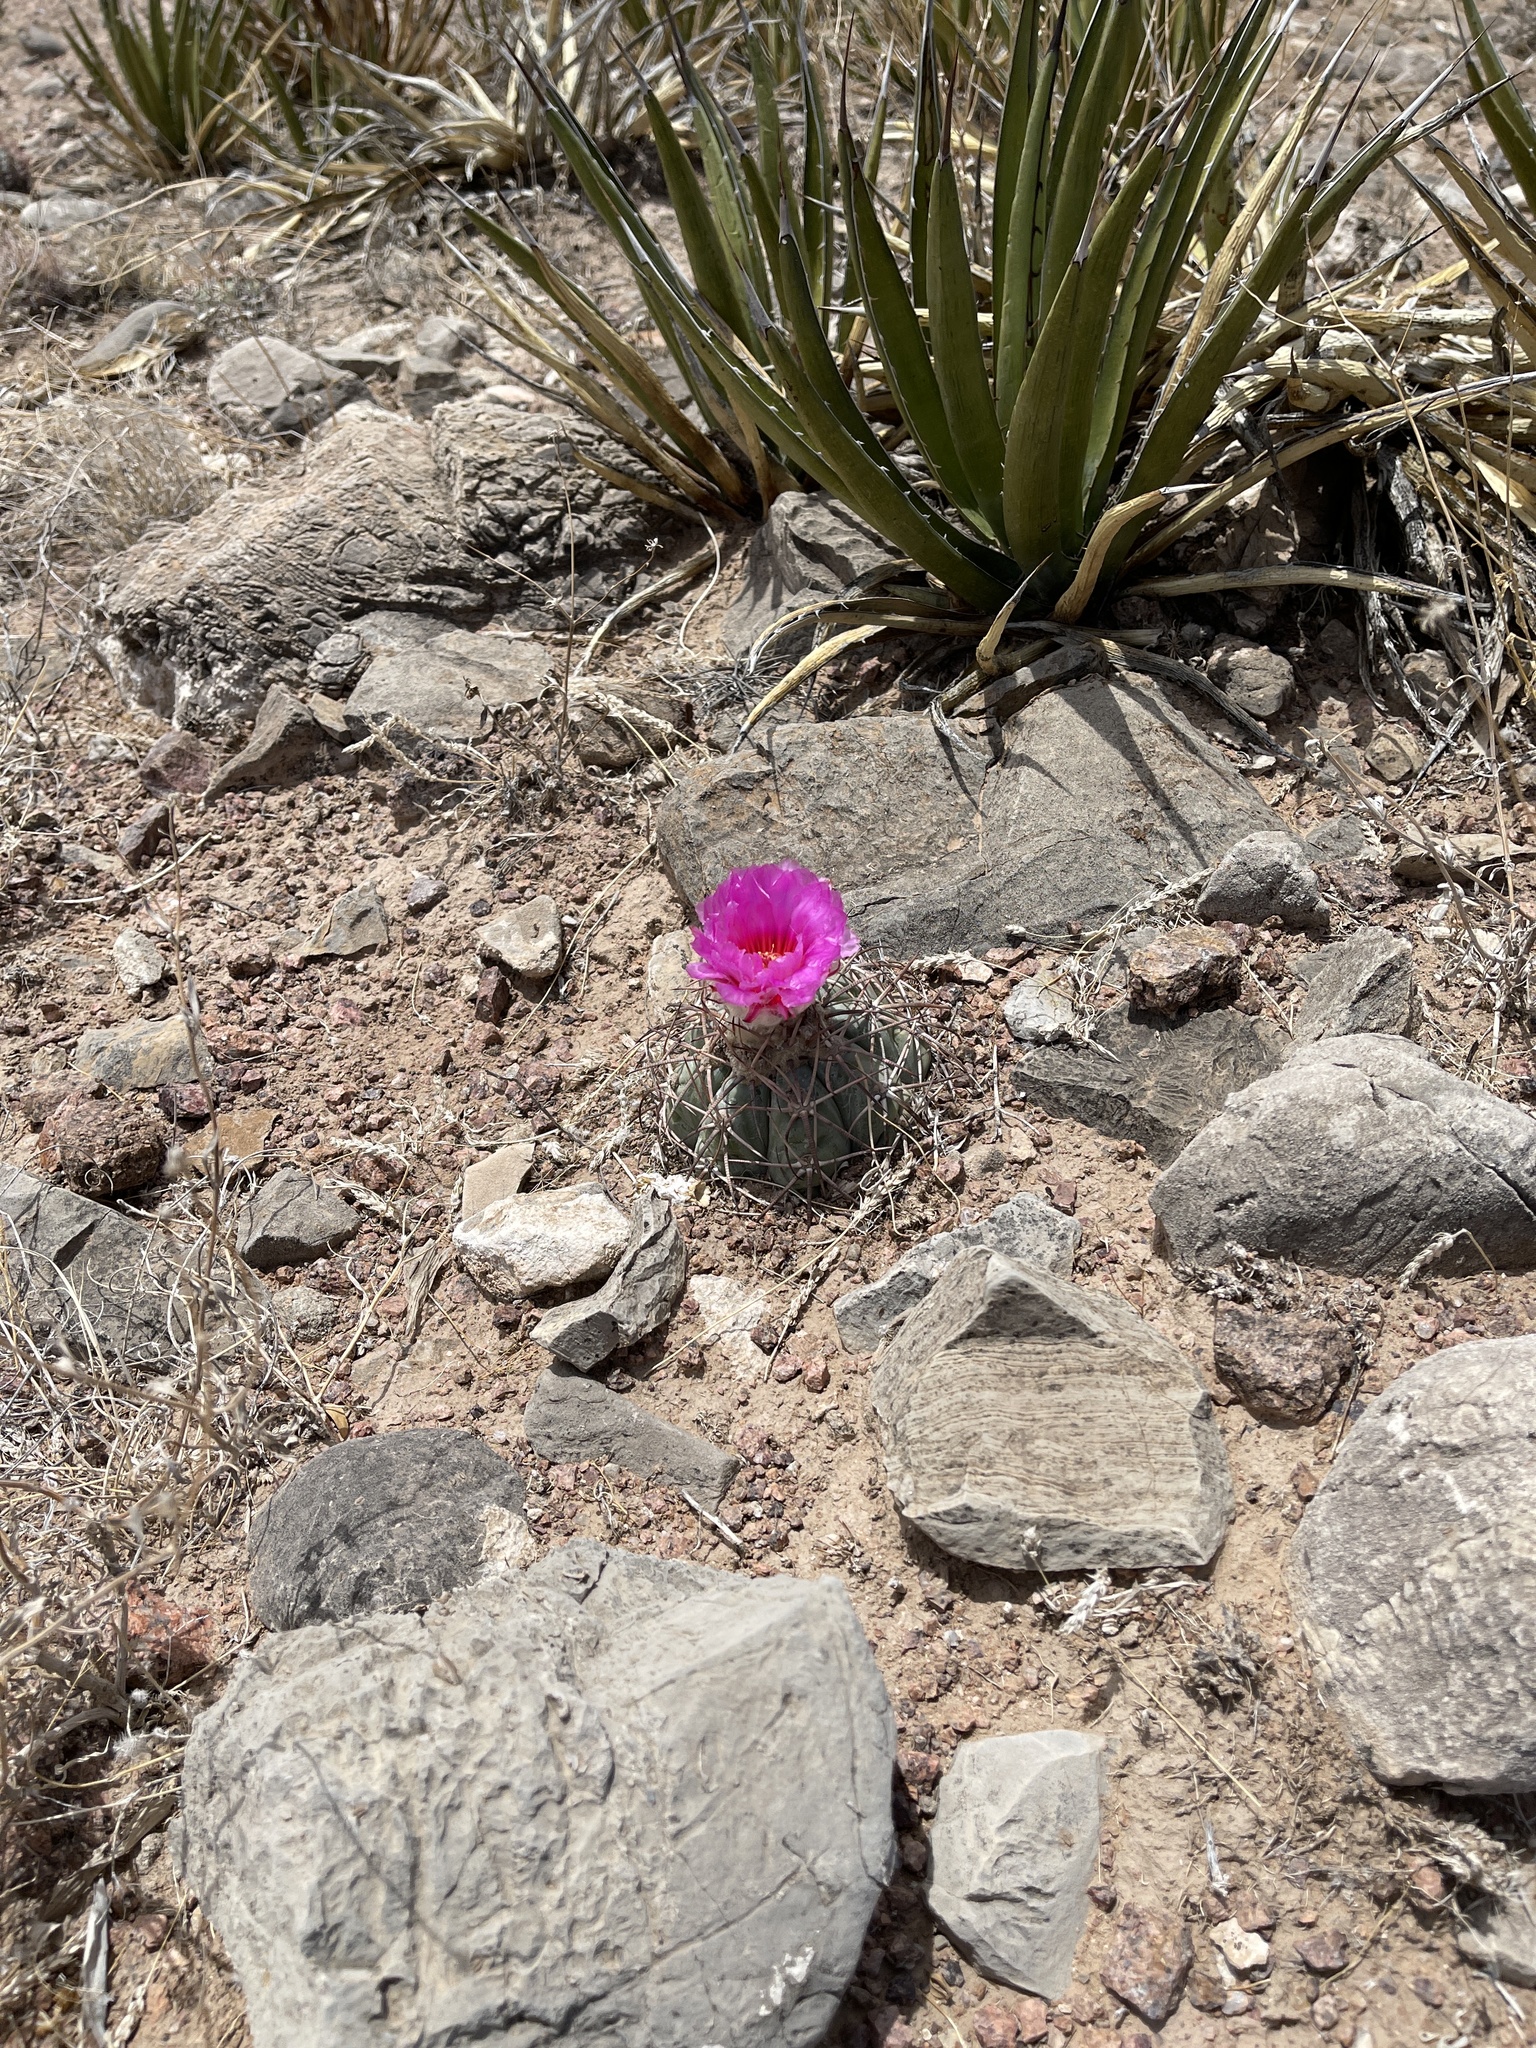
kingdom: Plantae
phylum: Tracheophyta
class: Magnoliopsida
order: Caryophyllales
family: Cactaceae
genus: Echinocactus
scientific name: Echinocactus horizonthalonius
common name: Devilshead
